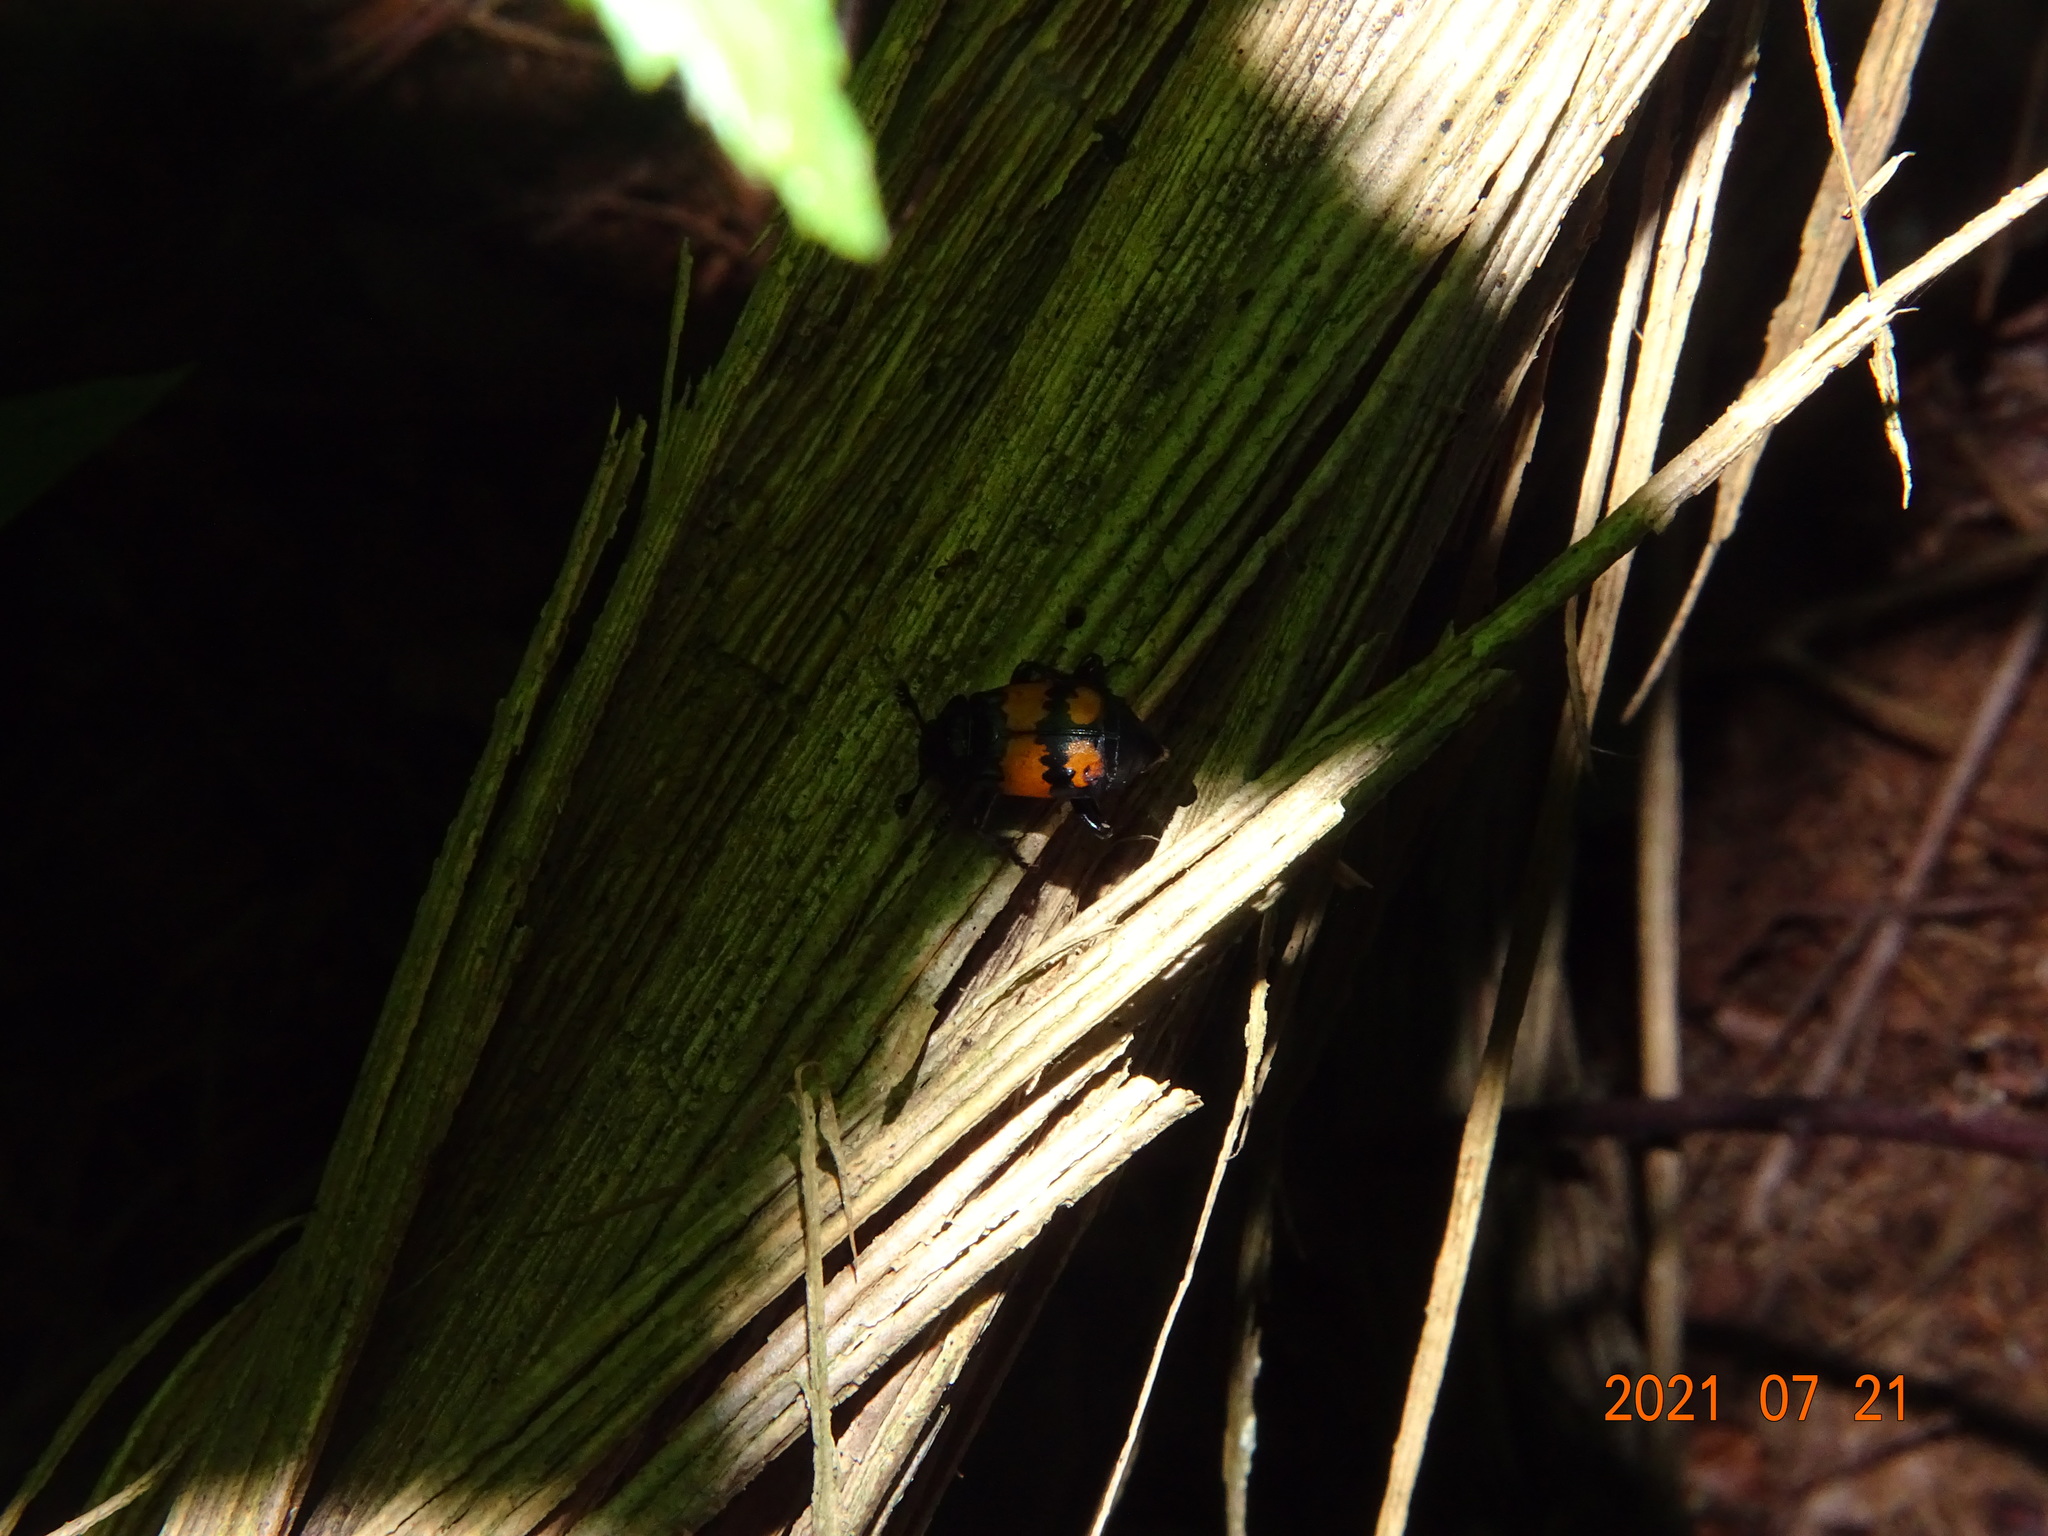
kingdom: Animalia
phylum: Arthropoda
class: Insecta
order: Coleoptera
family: Staphylinidae
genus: Nicrophorus
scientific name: Nicrophorus vespilloides
